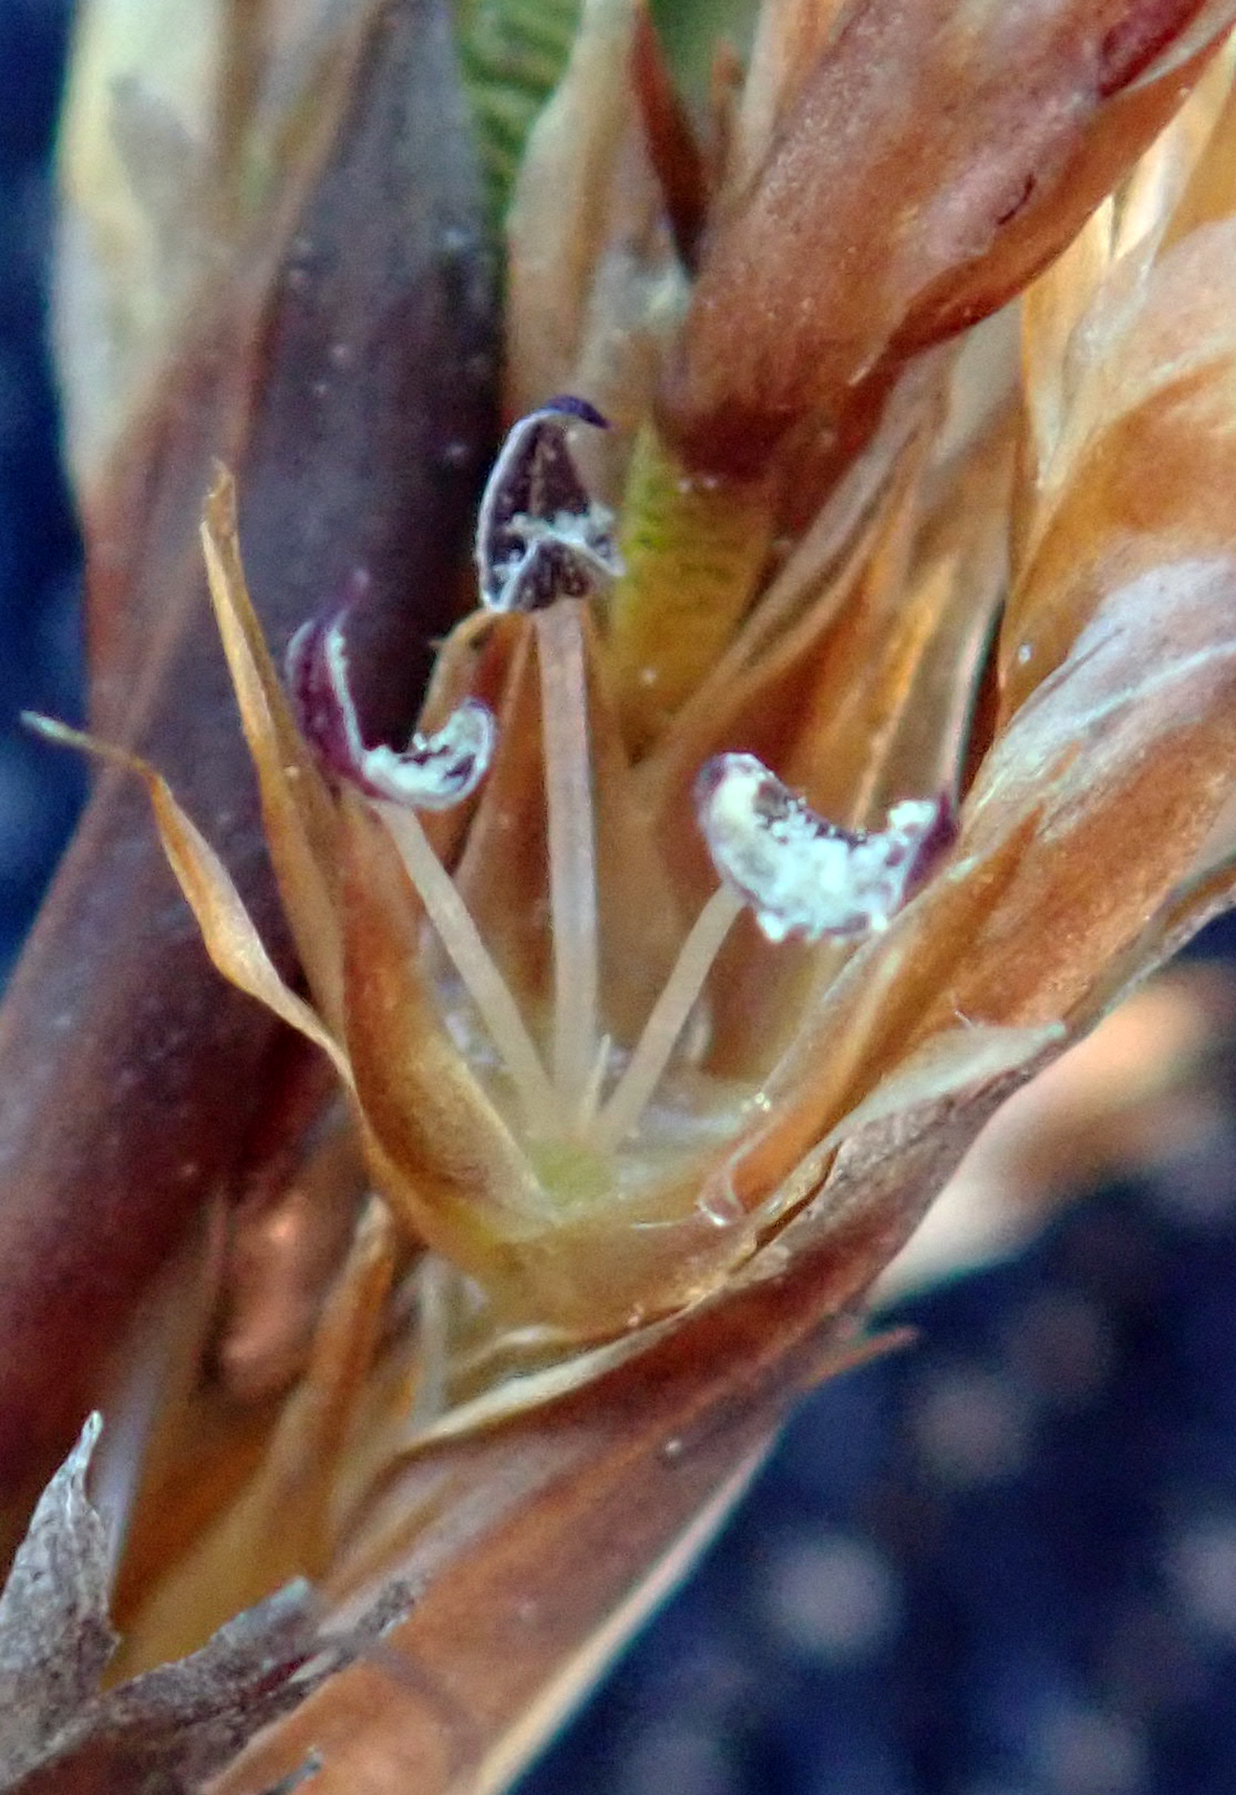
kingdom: Plantae
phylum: Tracheophyta
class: Liliopsida
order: Poales
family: Restionaceae
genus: Sporadanthus
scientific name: Sporadanthus traversii
